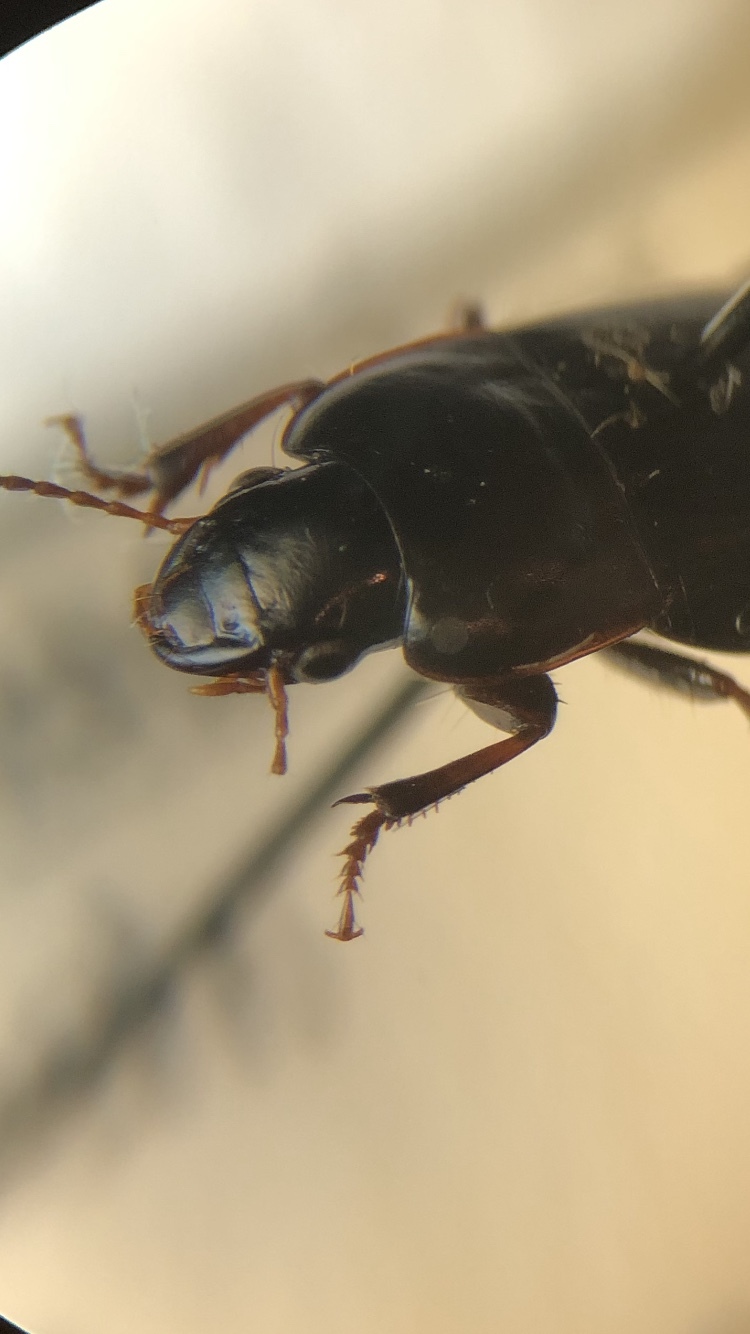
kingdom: Animalia
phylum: Arthropoda
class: Insecta
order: Coleoptera
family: Carabidae
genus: Harpalus
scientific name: Harpalus subcylindricus
